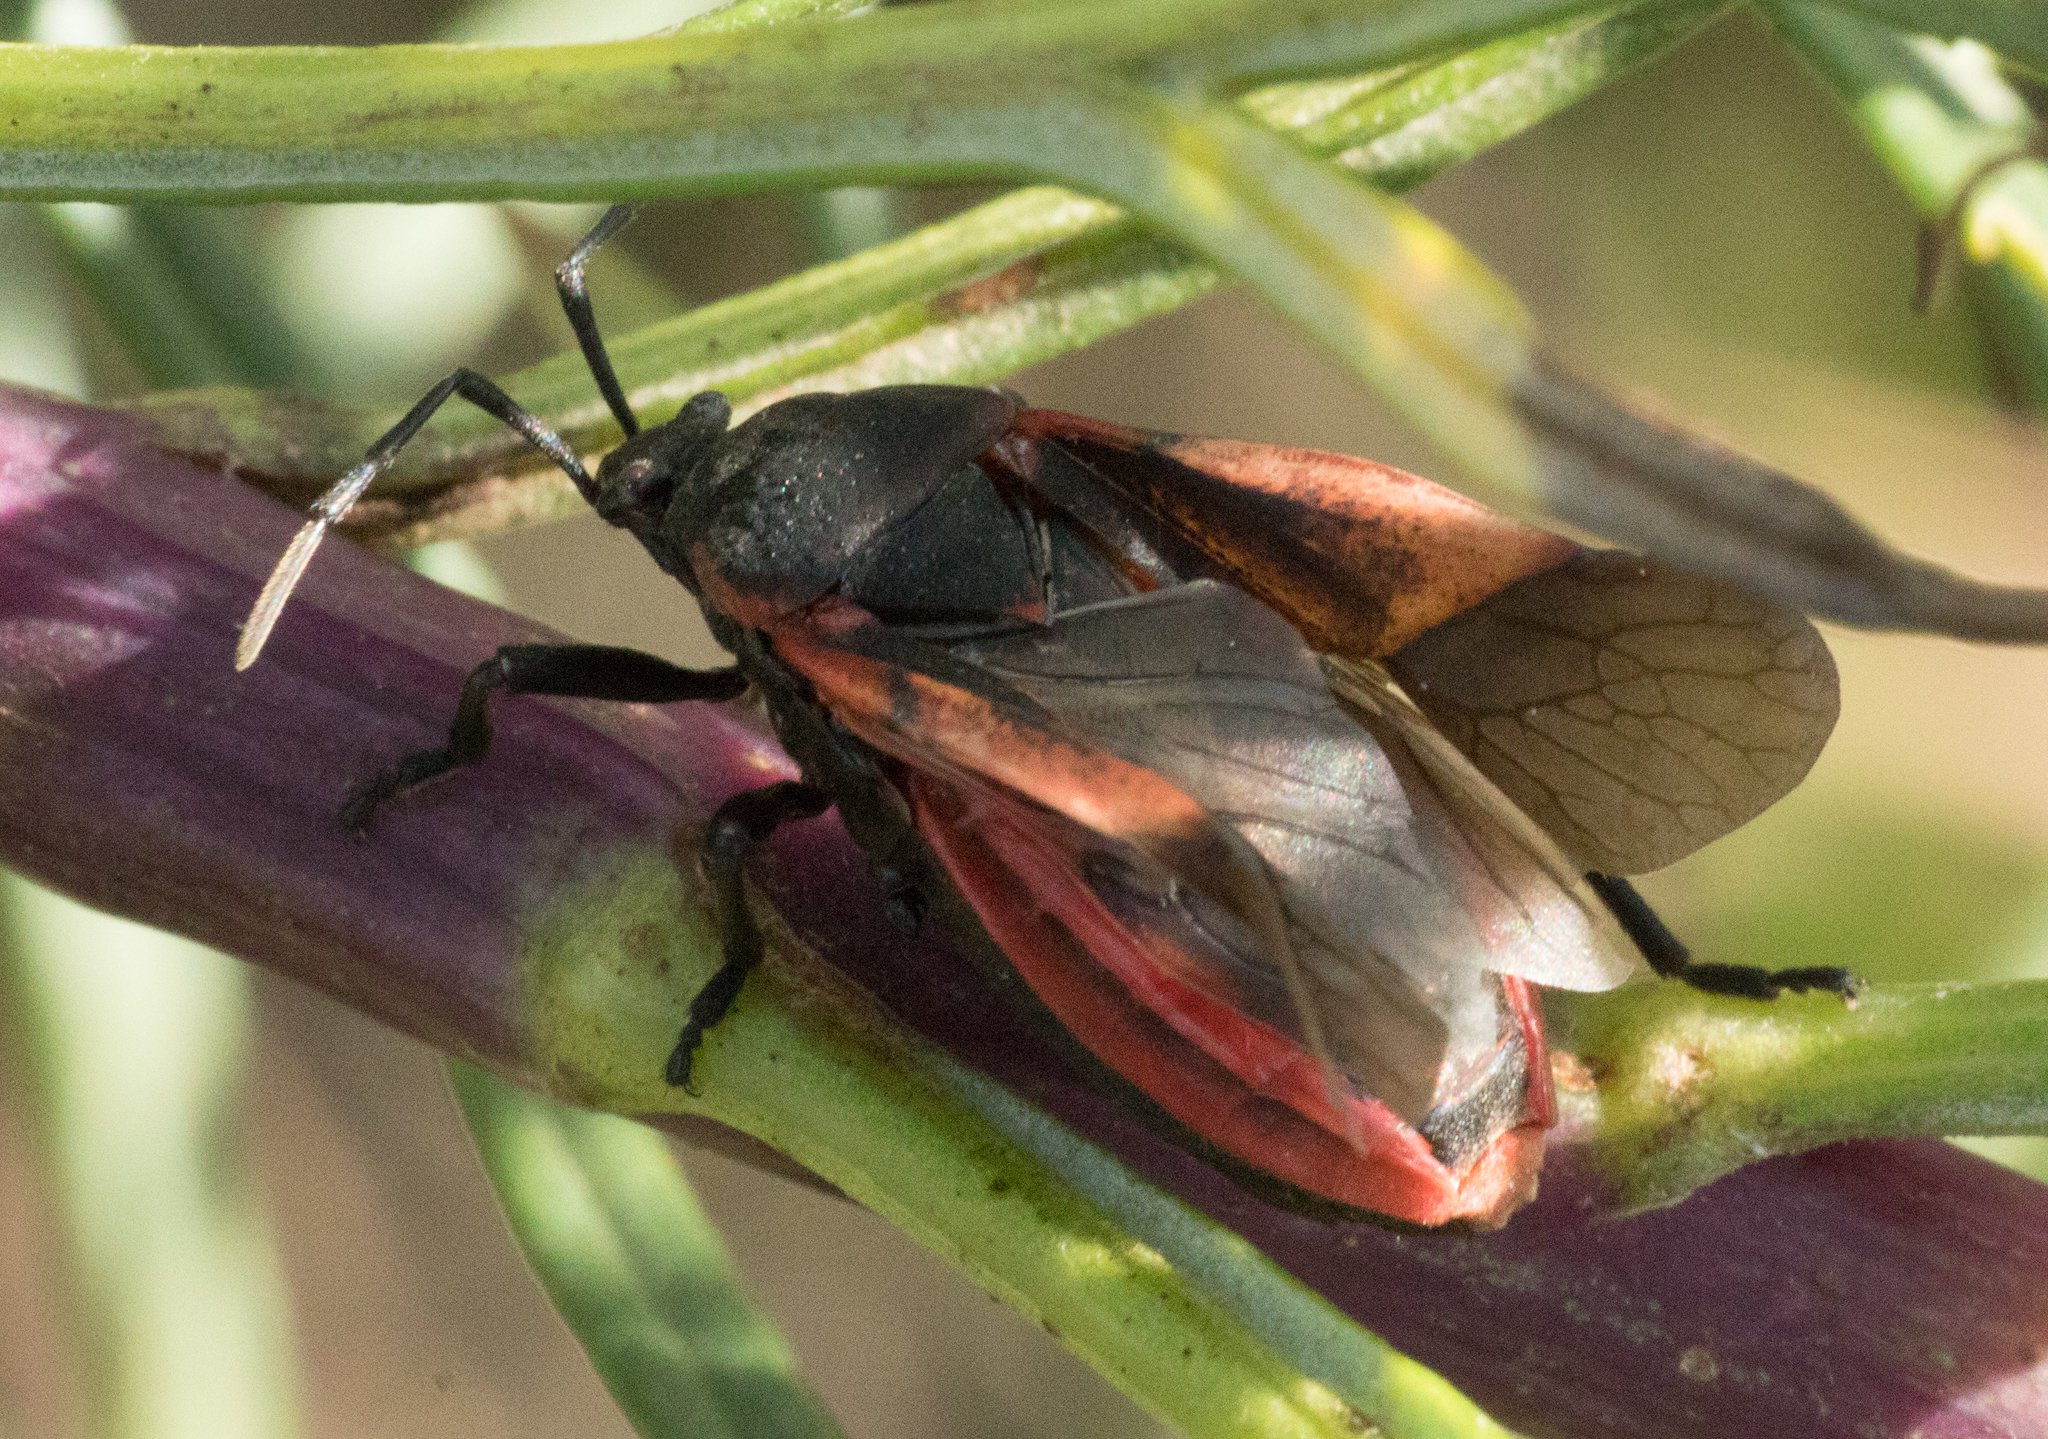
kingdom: Animalia
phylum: Arthropoda
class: Insecta
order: Hemiptera
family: Largidae
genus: Largus
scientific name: Largus rufipennis
